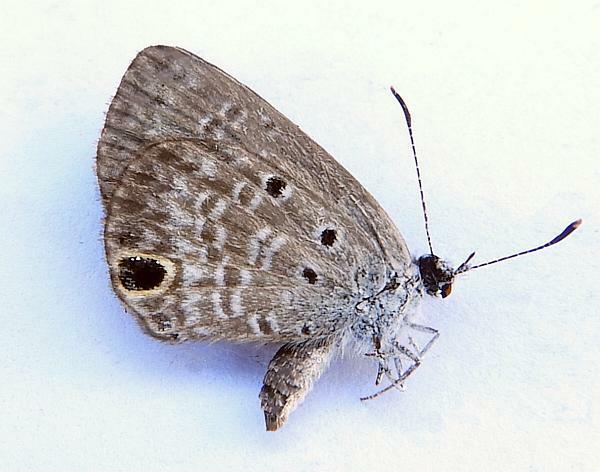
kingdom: Animalia
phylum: Arthropoda
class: Insecta
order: Lepidoptera
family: Lycaenidae
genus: Hemiargus
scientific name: Hemiargus ceraunus
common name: Ceraunus blue
